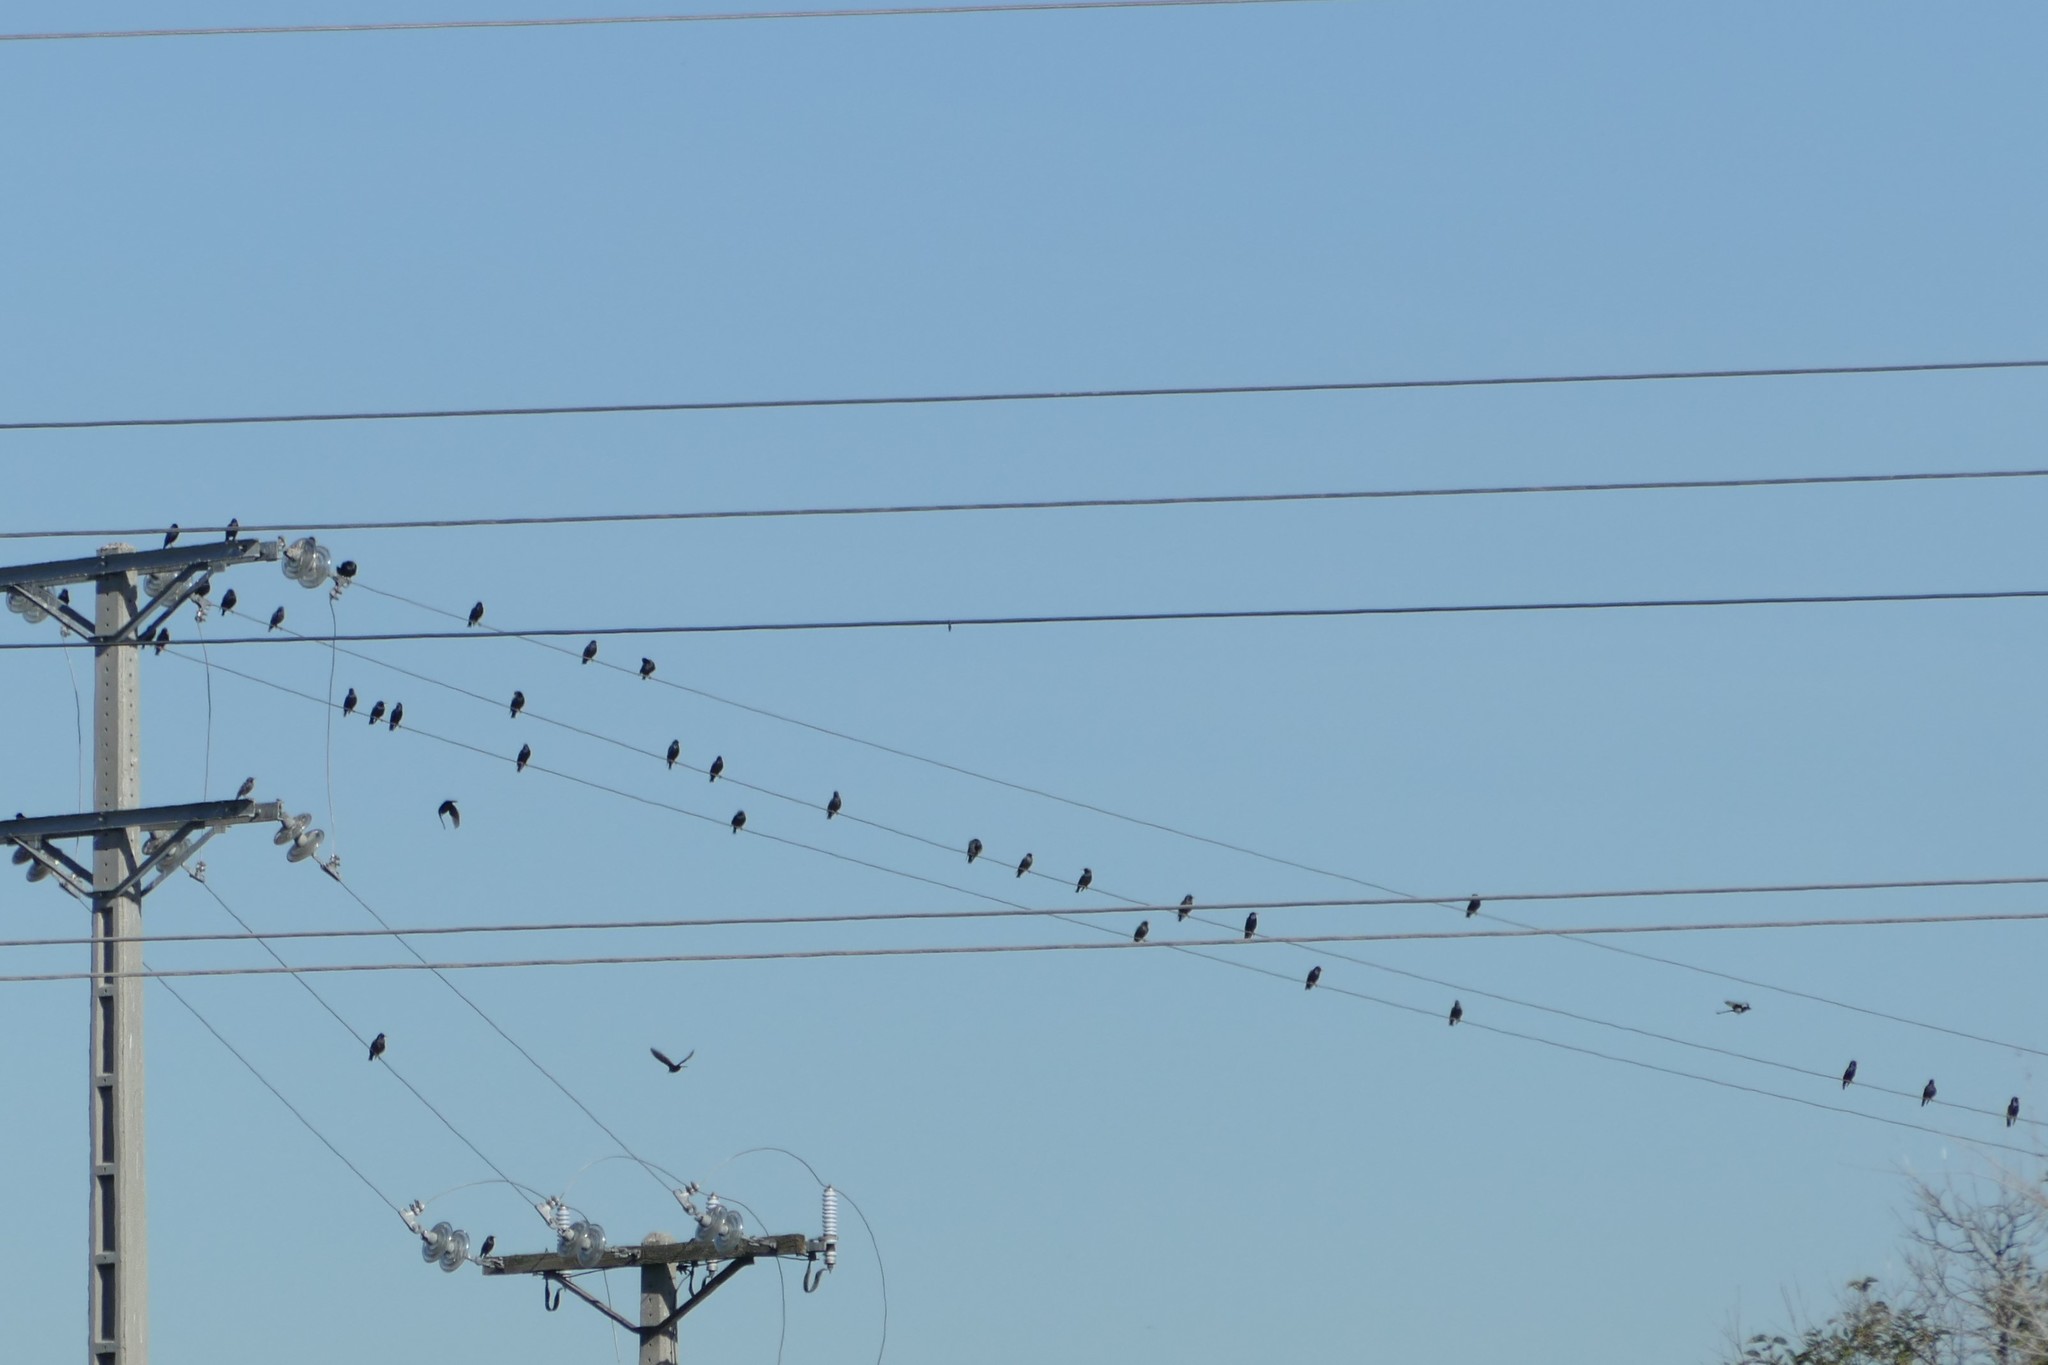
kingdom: Animalia
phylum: Chordata
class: Aves
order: Passeriformes
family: Sturnidae
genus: Sturnus
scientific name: Sturnus unicolor
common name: Spotless starling
